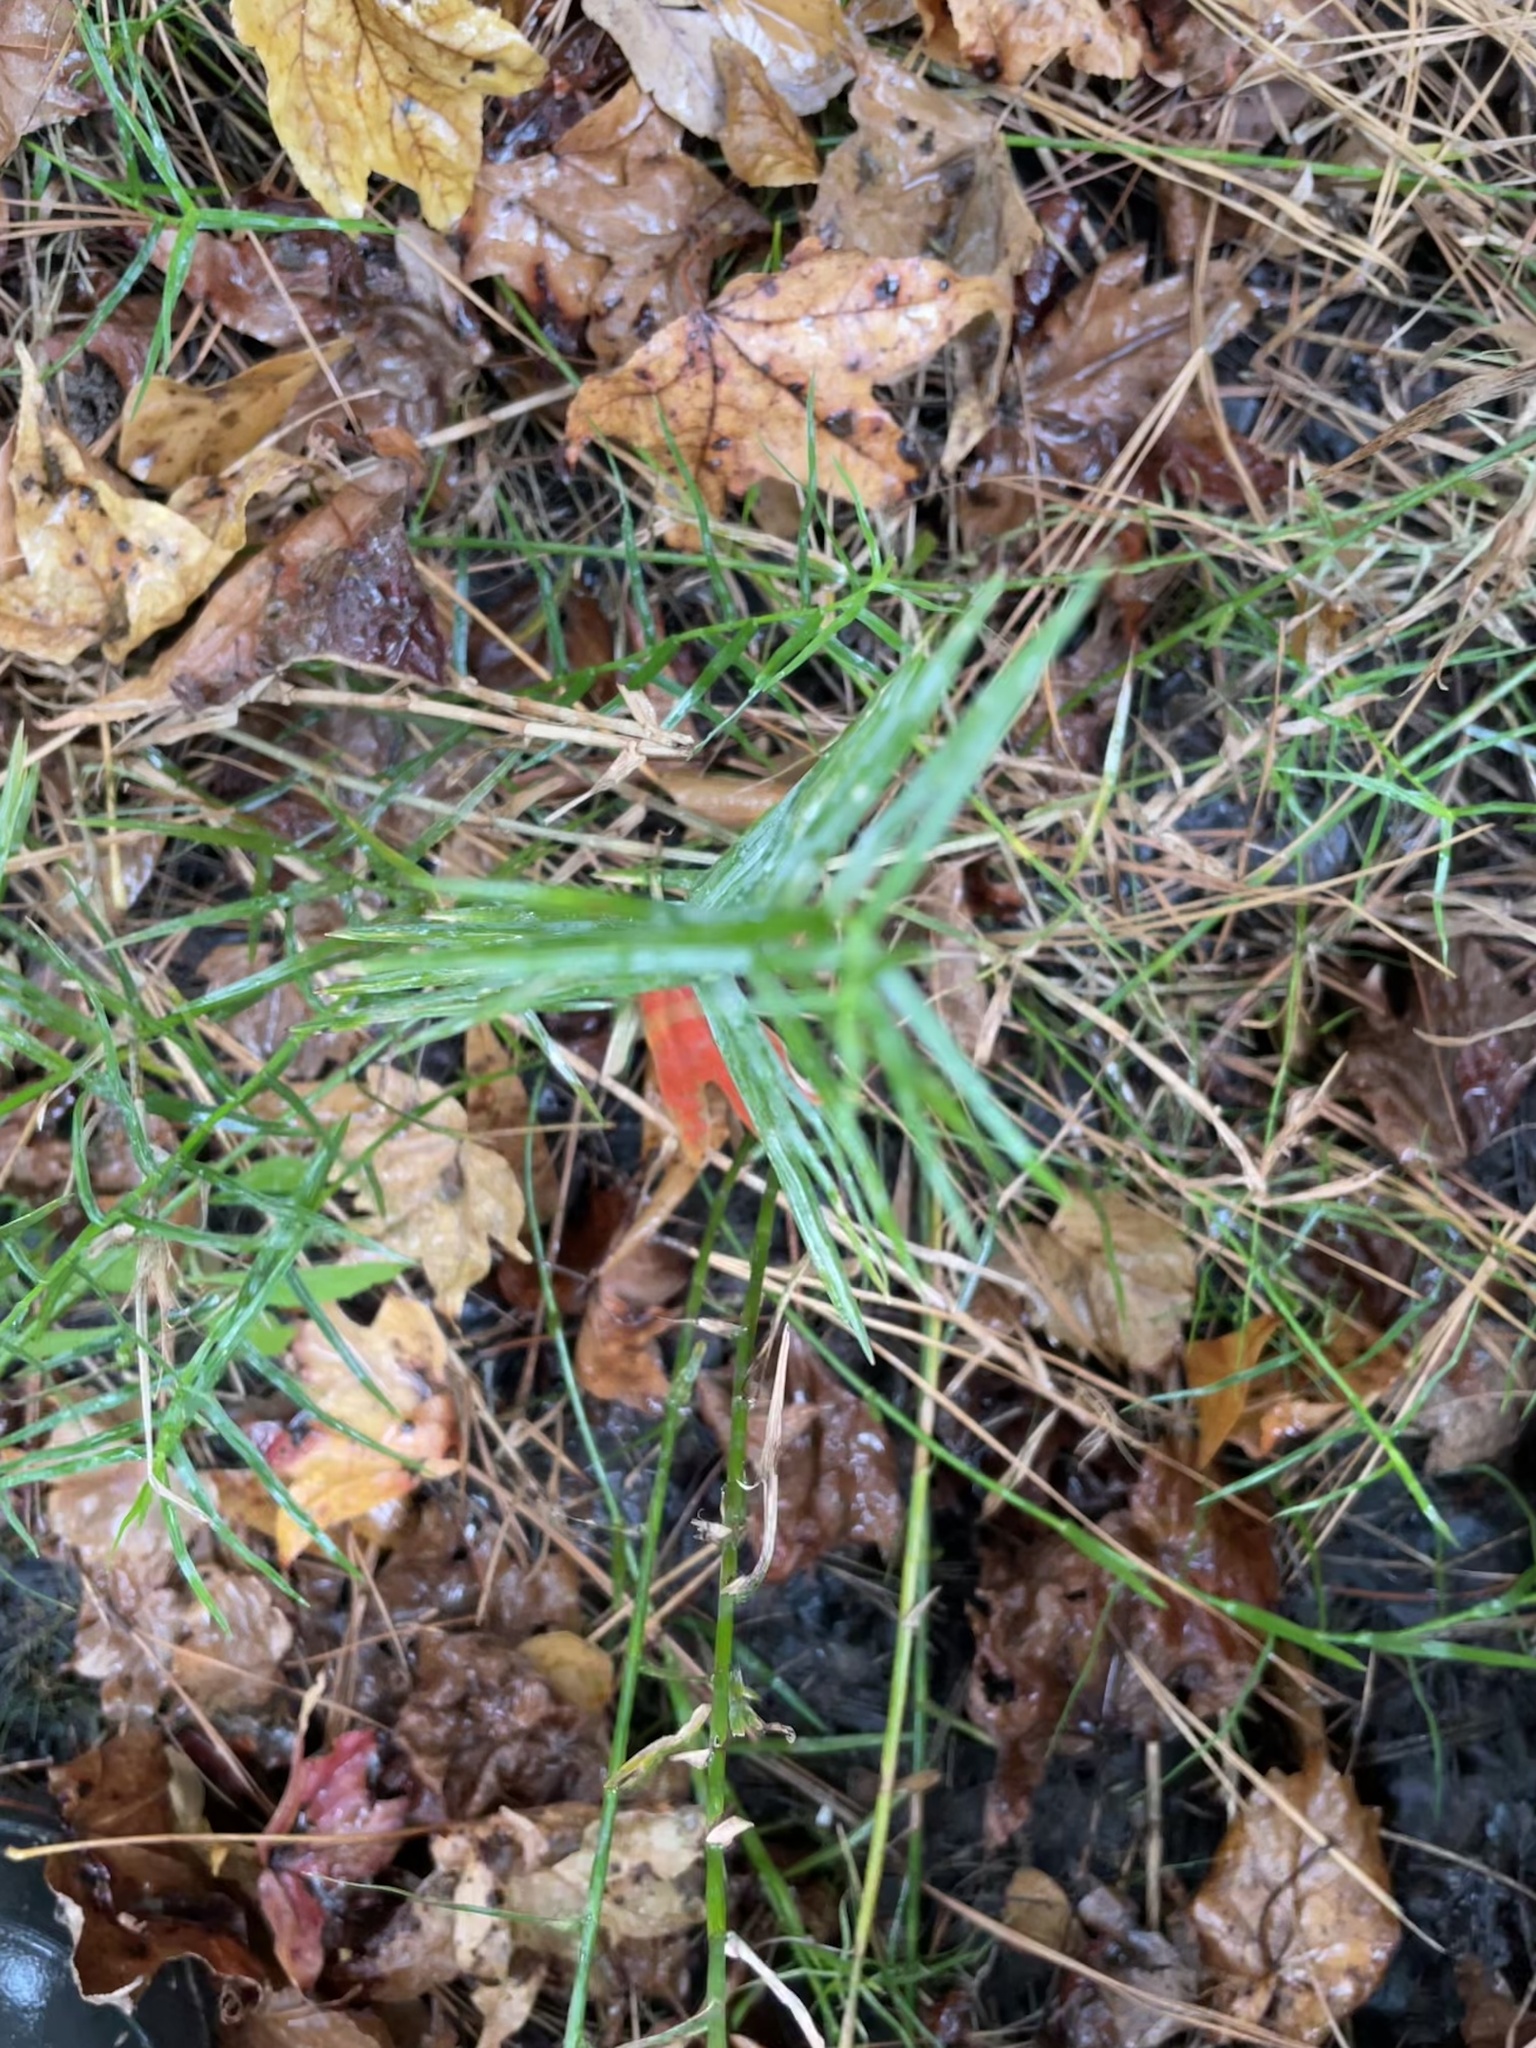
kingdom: Plantae
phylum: Tracheophyta
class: Liliopsida
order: Poales
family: Cyperaceae
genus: Dulichium
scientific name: Dulichium arundinaceum
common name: Three-way sedge
